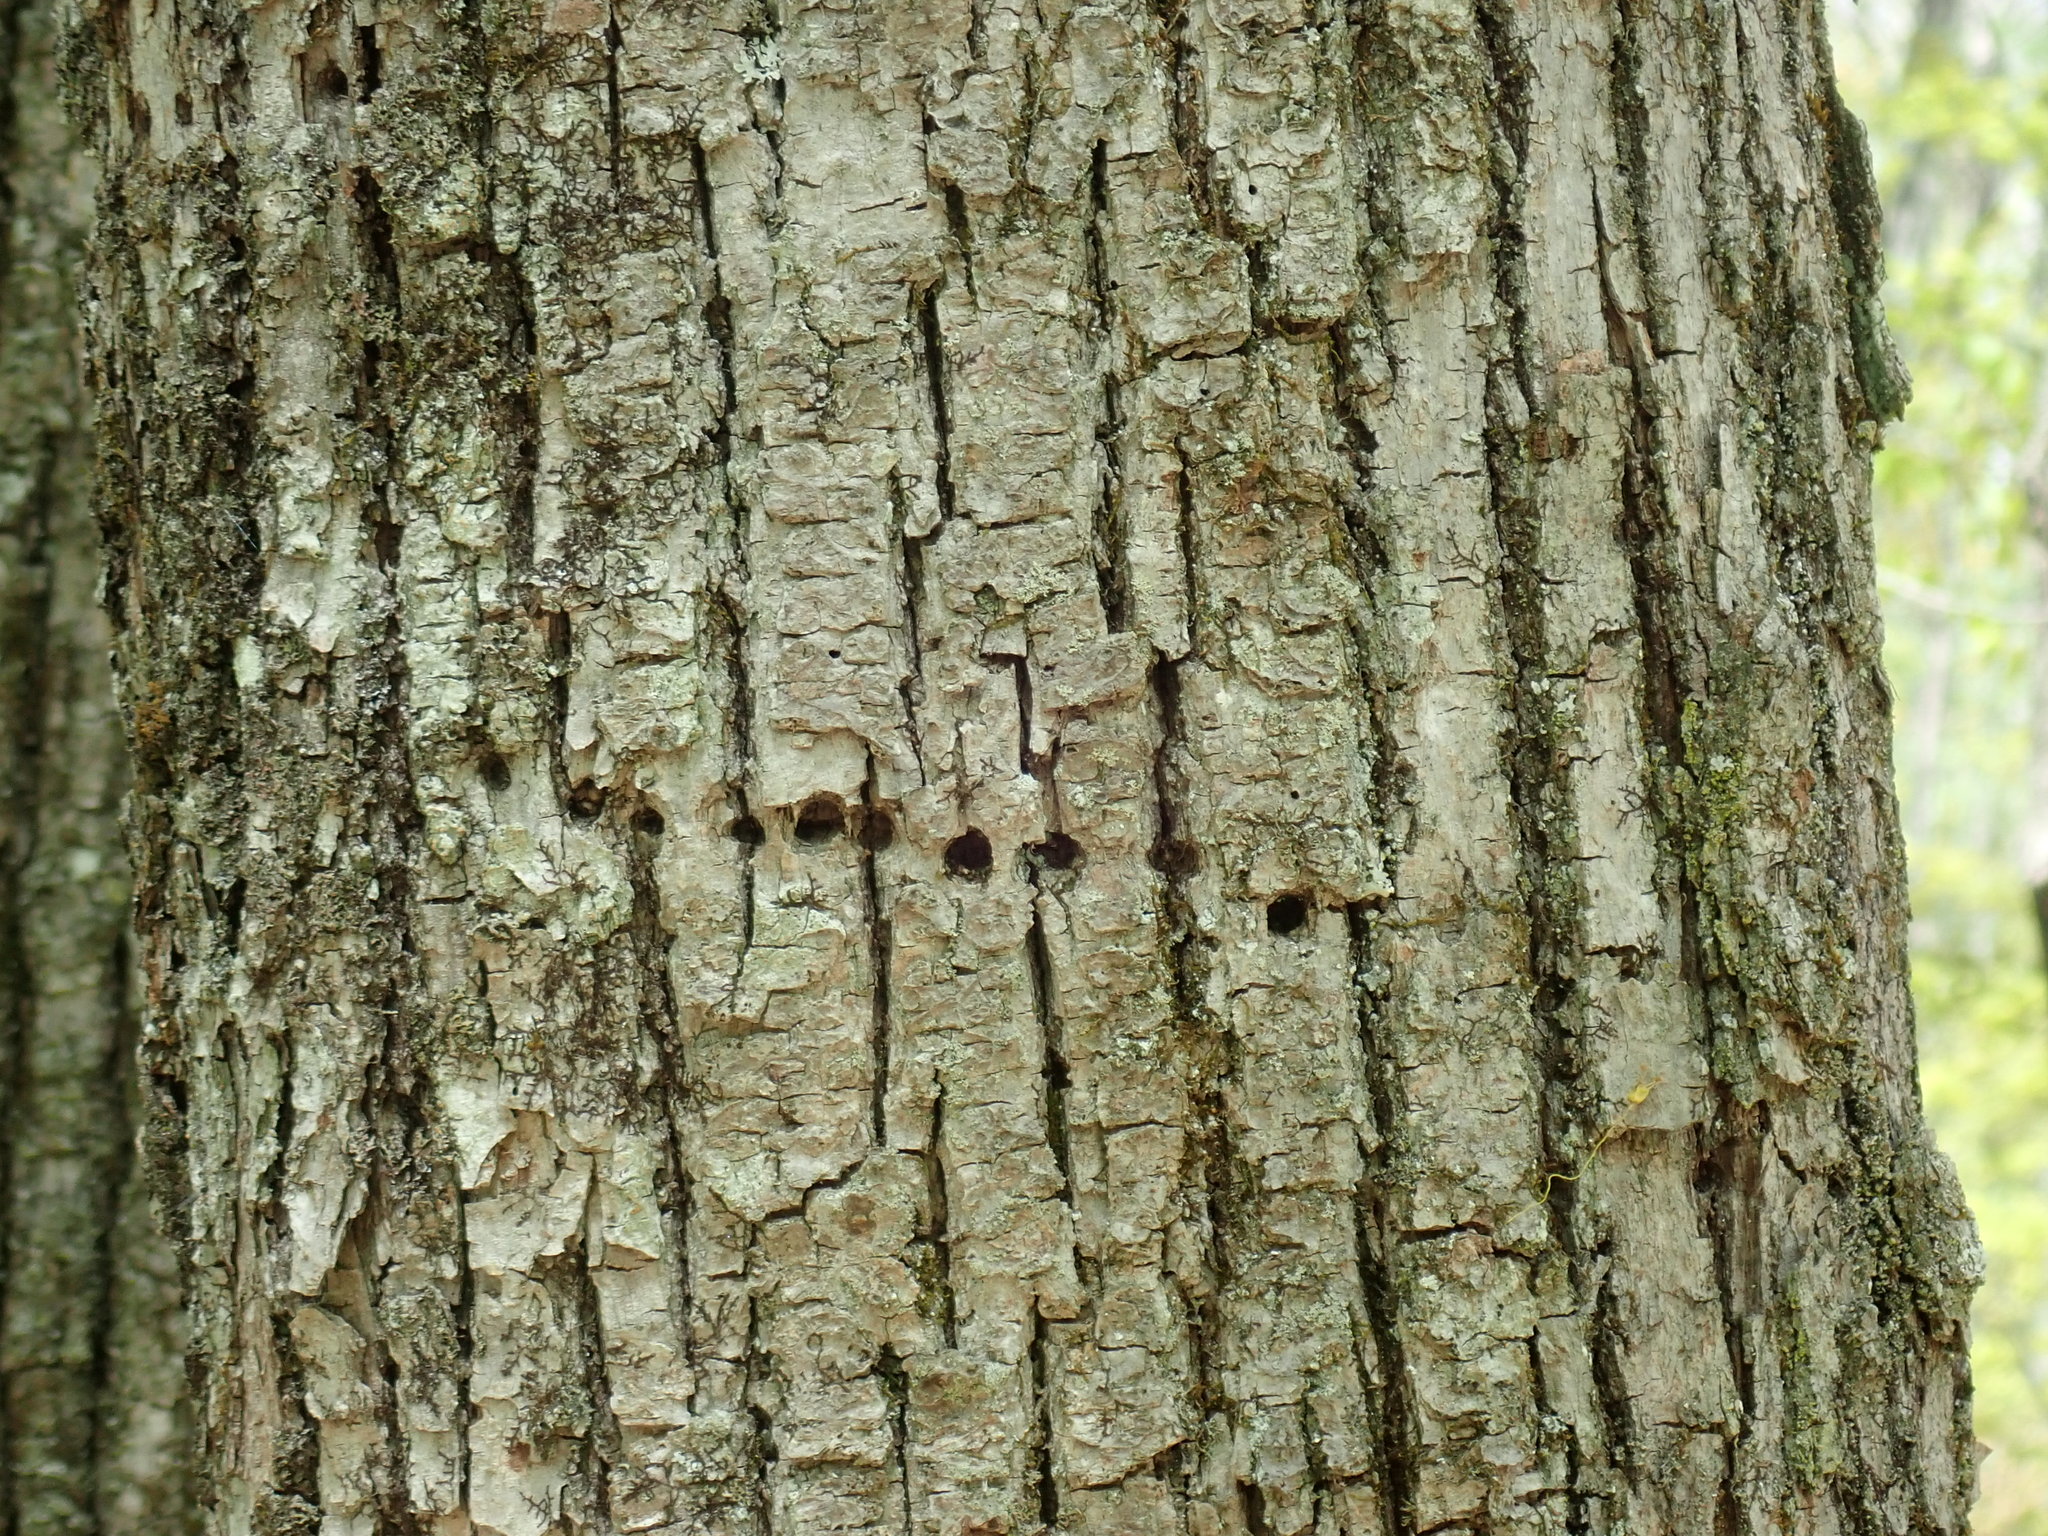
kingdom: Animalia
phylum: Chordata
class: Aves
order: Piciformes
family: Picidae
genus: Sphyrapicus
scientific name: Sphyrapicus varius
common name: Yellow-bellied sapsucker
